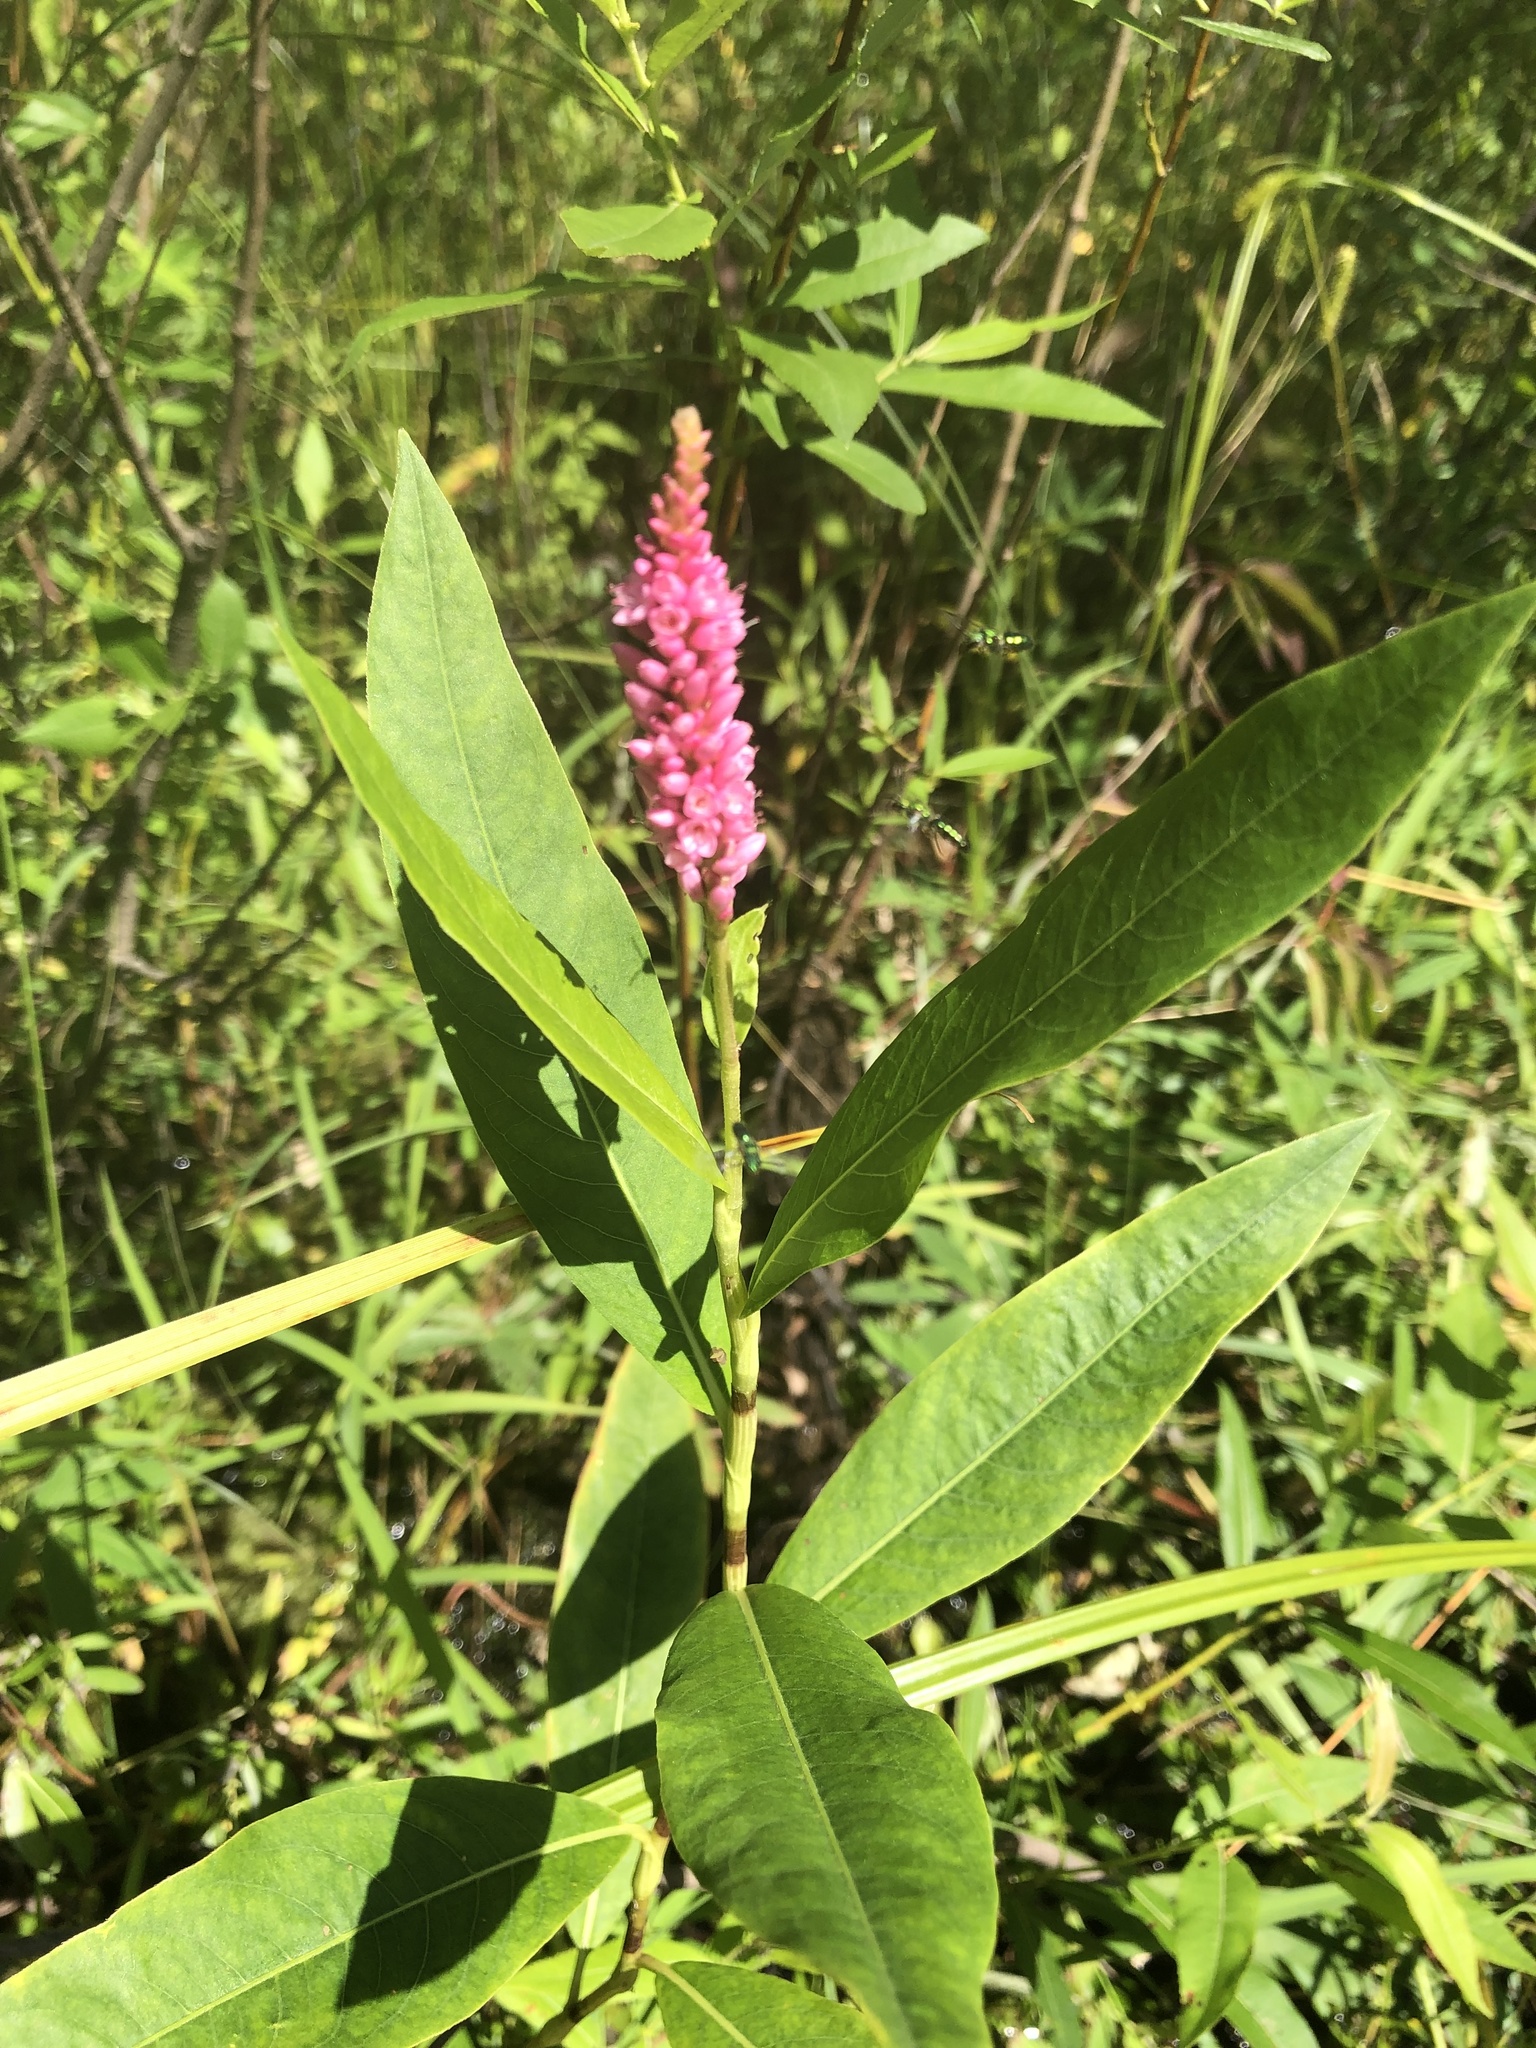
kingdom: Plantae
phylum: Tracheophyta
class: Magnoliopsida
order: Caryophyllales
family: Polygonaceae
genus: Persicaria
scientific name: Persicaria amphibia
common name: Amphibious bistort
